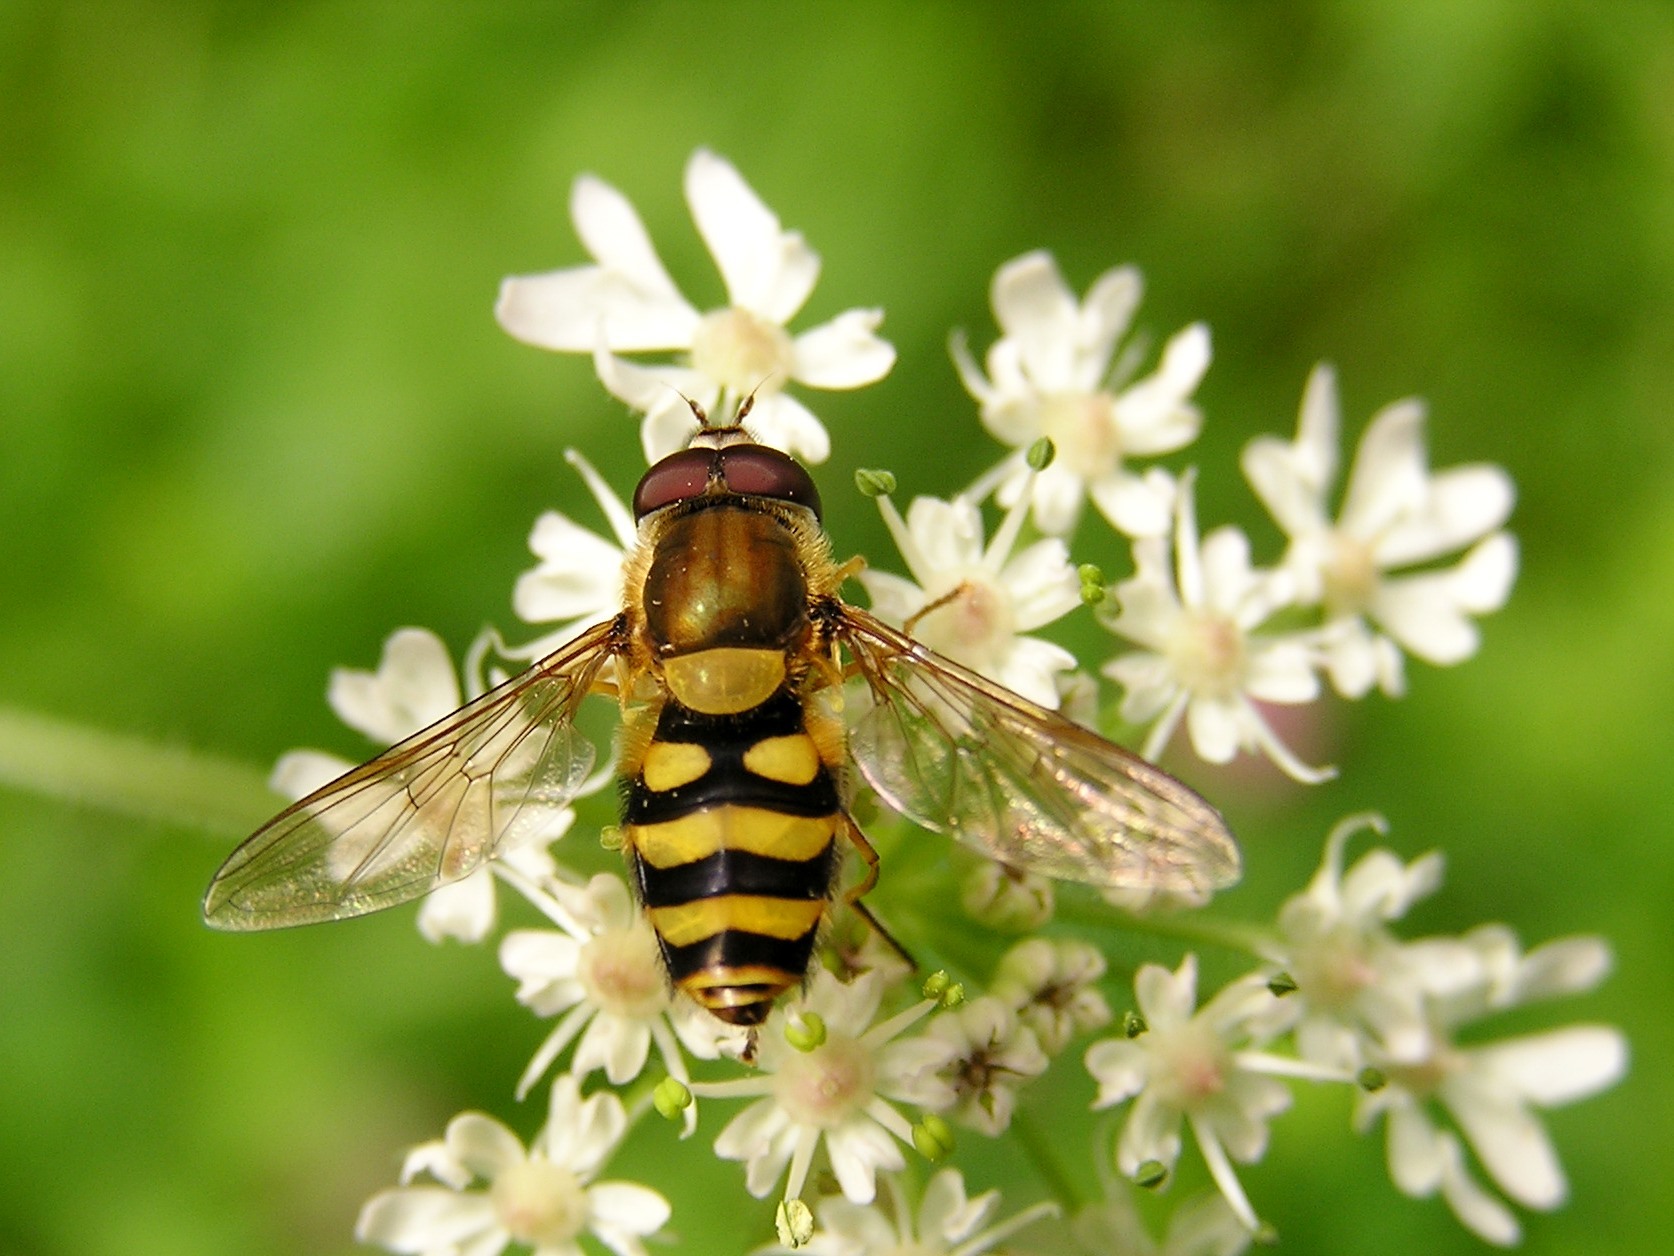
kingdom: Animalia
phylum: Arthropoda
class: Insecta
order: Diptera
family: Syrphidae
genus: Syrphus
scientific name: Syrphus
